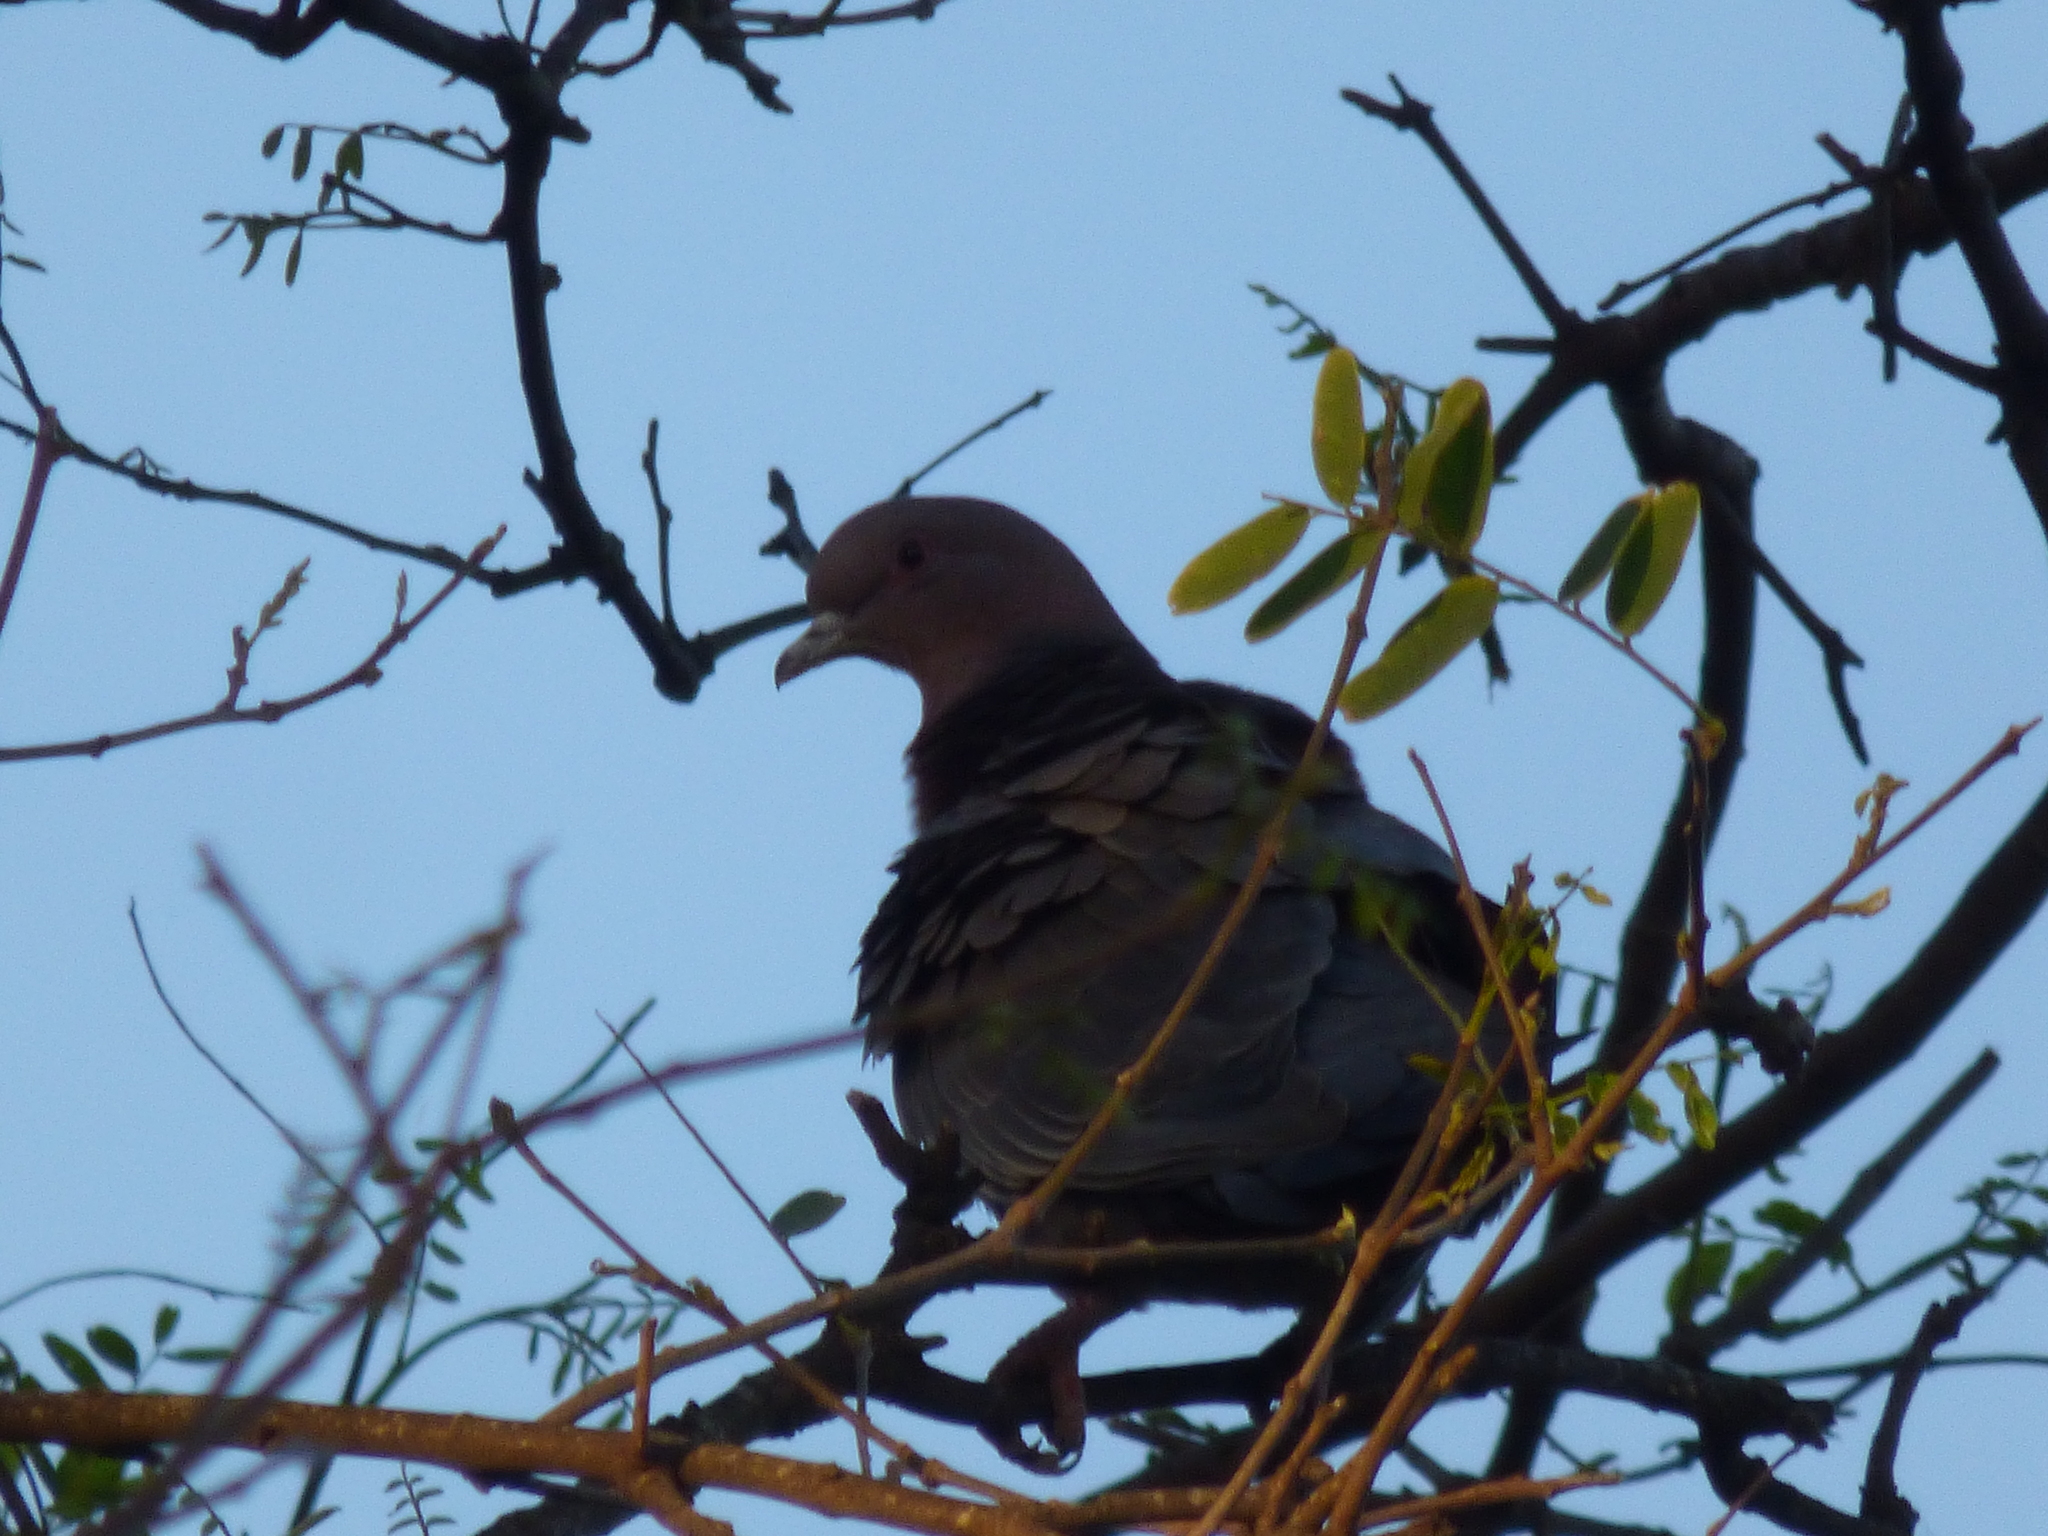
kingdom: Animalia
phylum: Chordata
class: Aves
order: Columbiformes
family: Columbidae
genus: Patagioenas
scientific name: Patagioenas picazuro
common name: Picazuro pigeon
